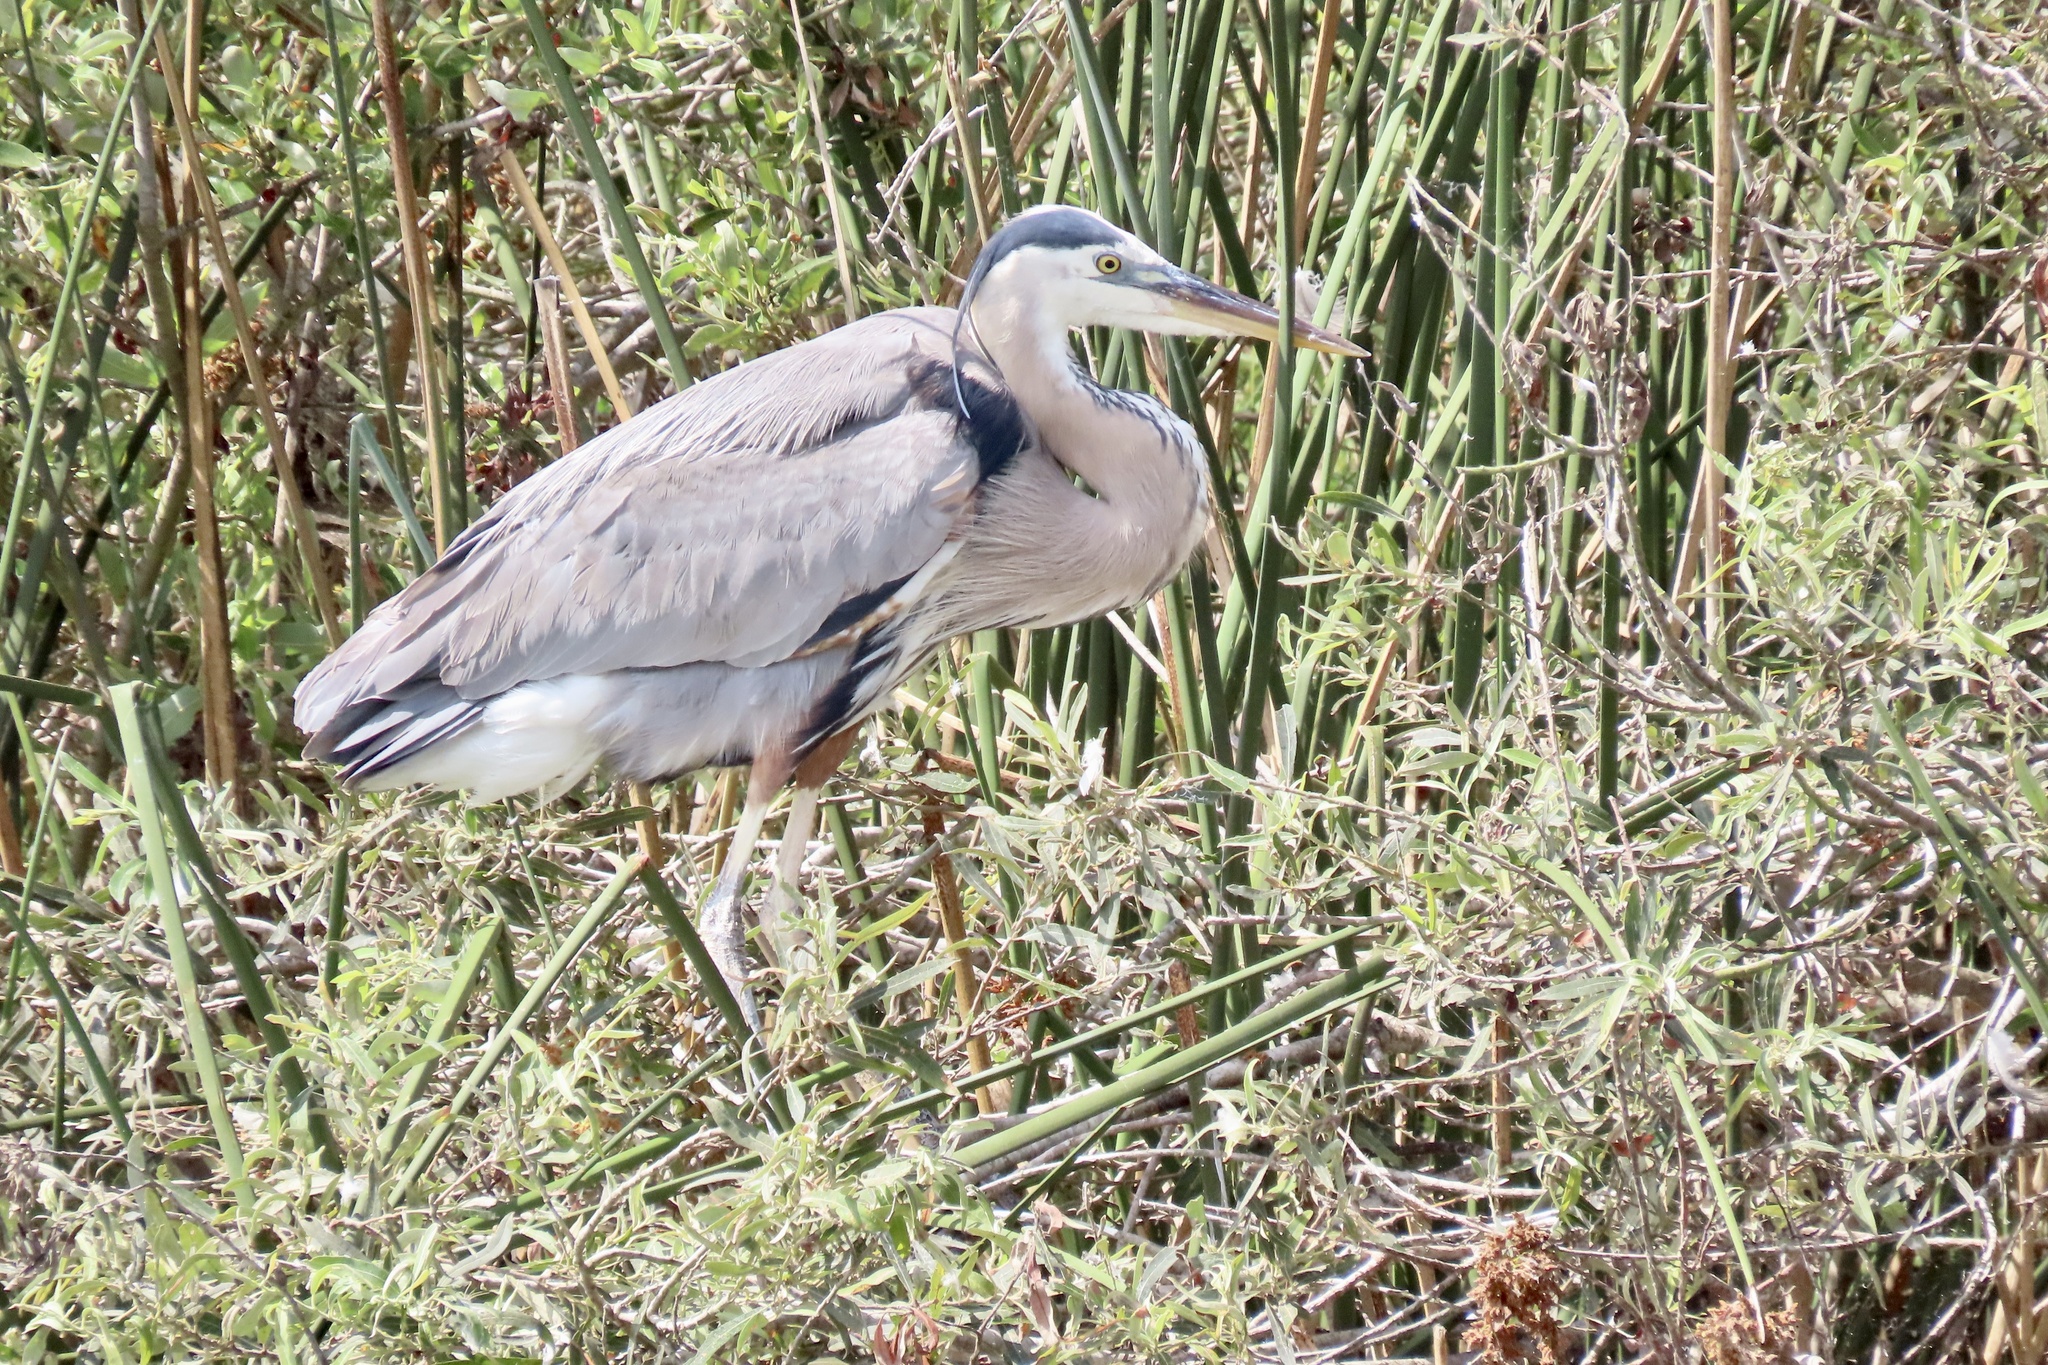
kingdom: Animalia
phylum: Chordata
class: Aves
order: Pelecaniformes
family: Ardeidae
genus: Ardea
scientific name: Ardea herodias
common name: Great blue heron
